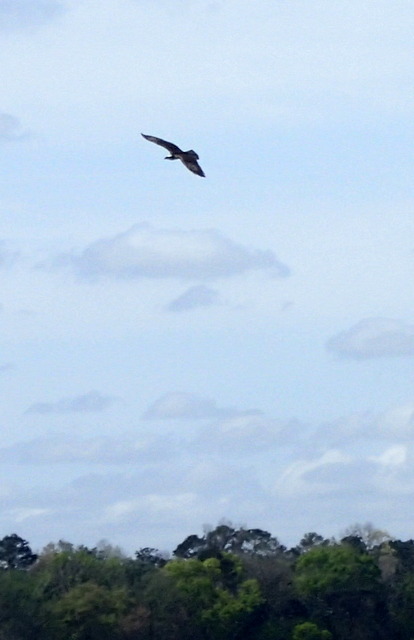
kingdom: Animalia
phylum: Chordata
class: Aves
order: Accipitriformes
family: Pandionidae
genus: Pandion
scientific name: Pandion haliaetus
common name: Osprey
